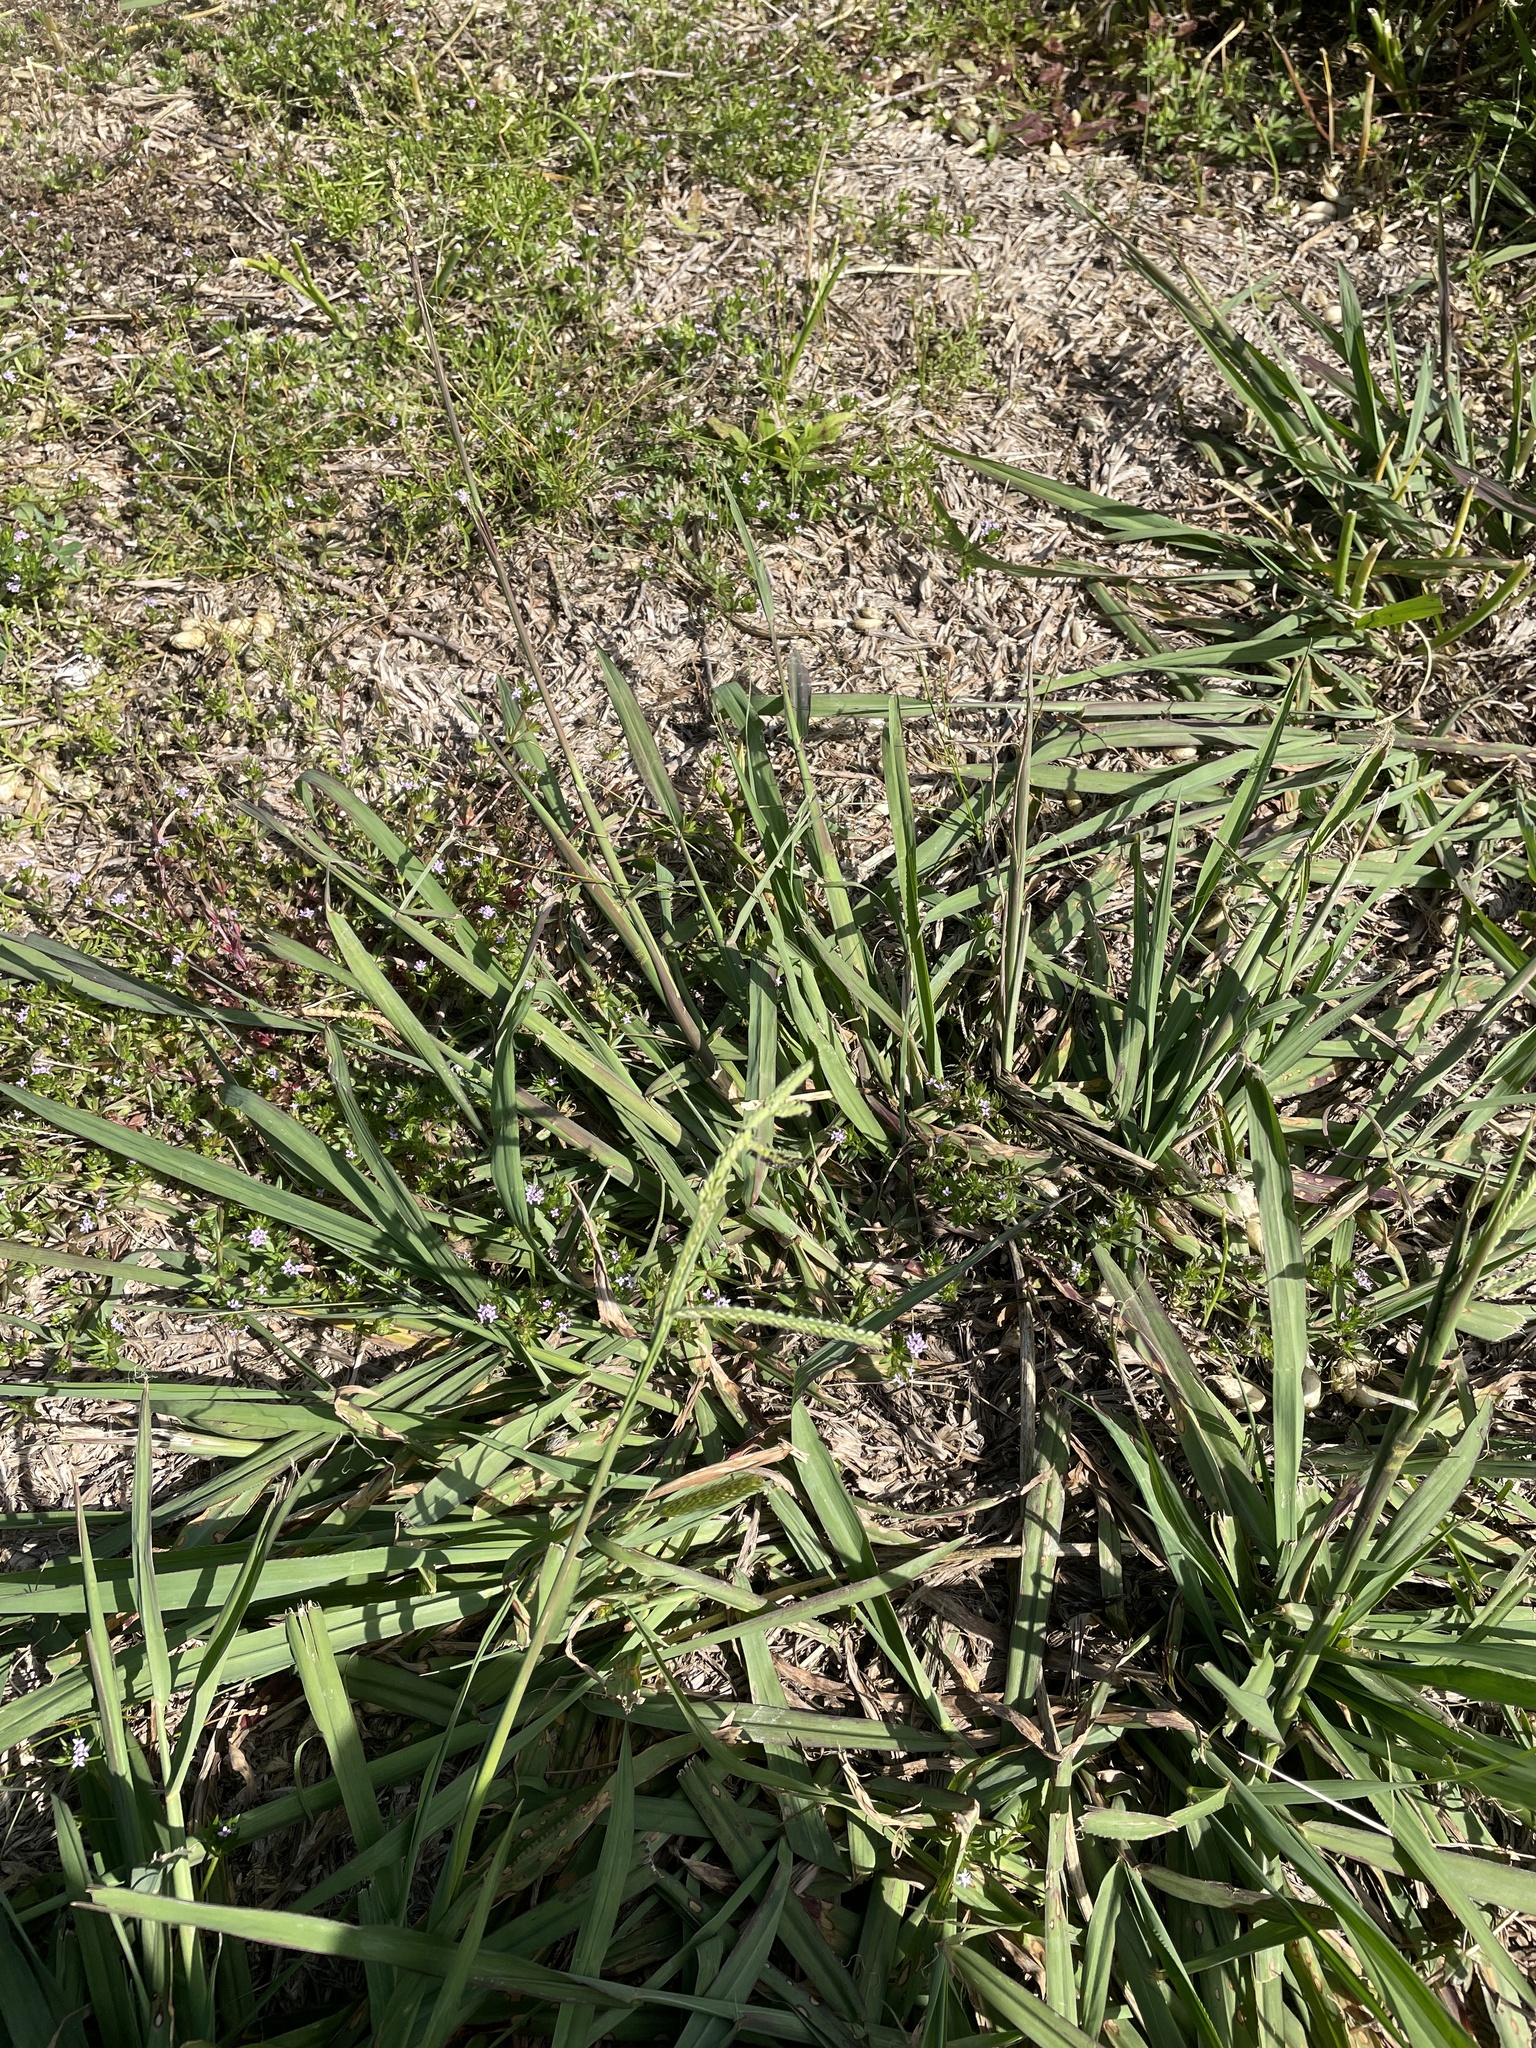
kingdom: Plantae
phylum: Tracheophyta
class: Liliopsida
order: Poales
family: Poaceae
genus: Paspalum
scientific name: Paspalum dilatatum
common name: Dallisgrass
